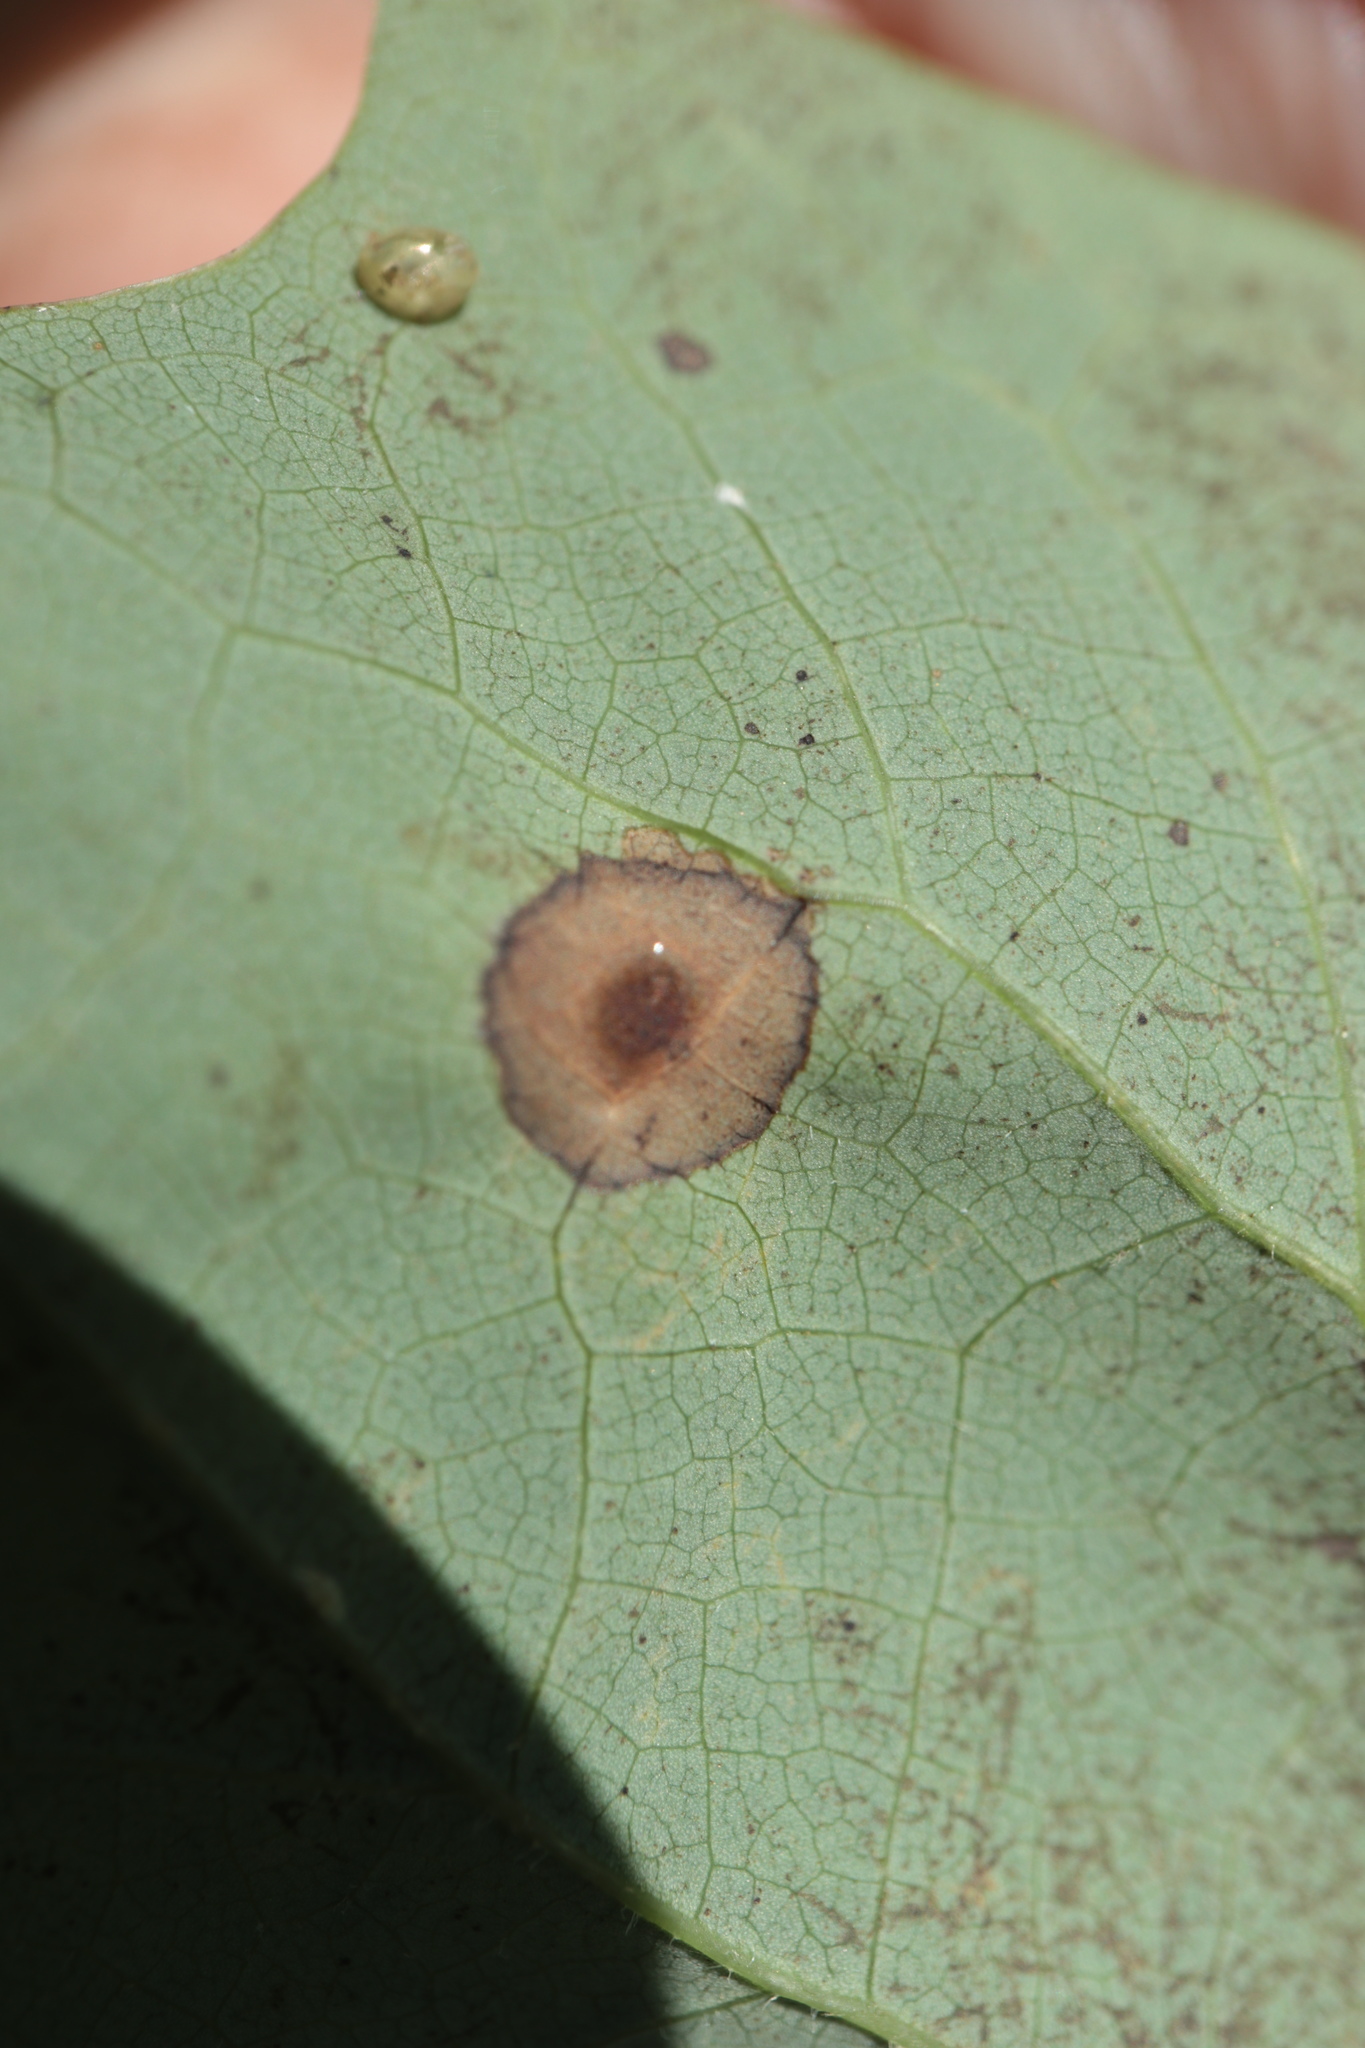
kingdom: Animalia
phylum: Arthropoda
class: Insecta
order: Diptera
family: Cecidomyiidae
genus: Resseliella
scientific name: Resseliella liriodendri
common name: Tulip tree leaf spot gall midge
